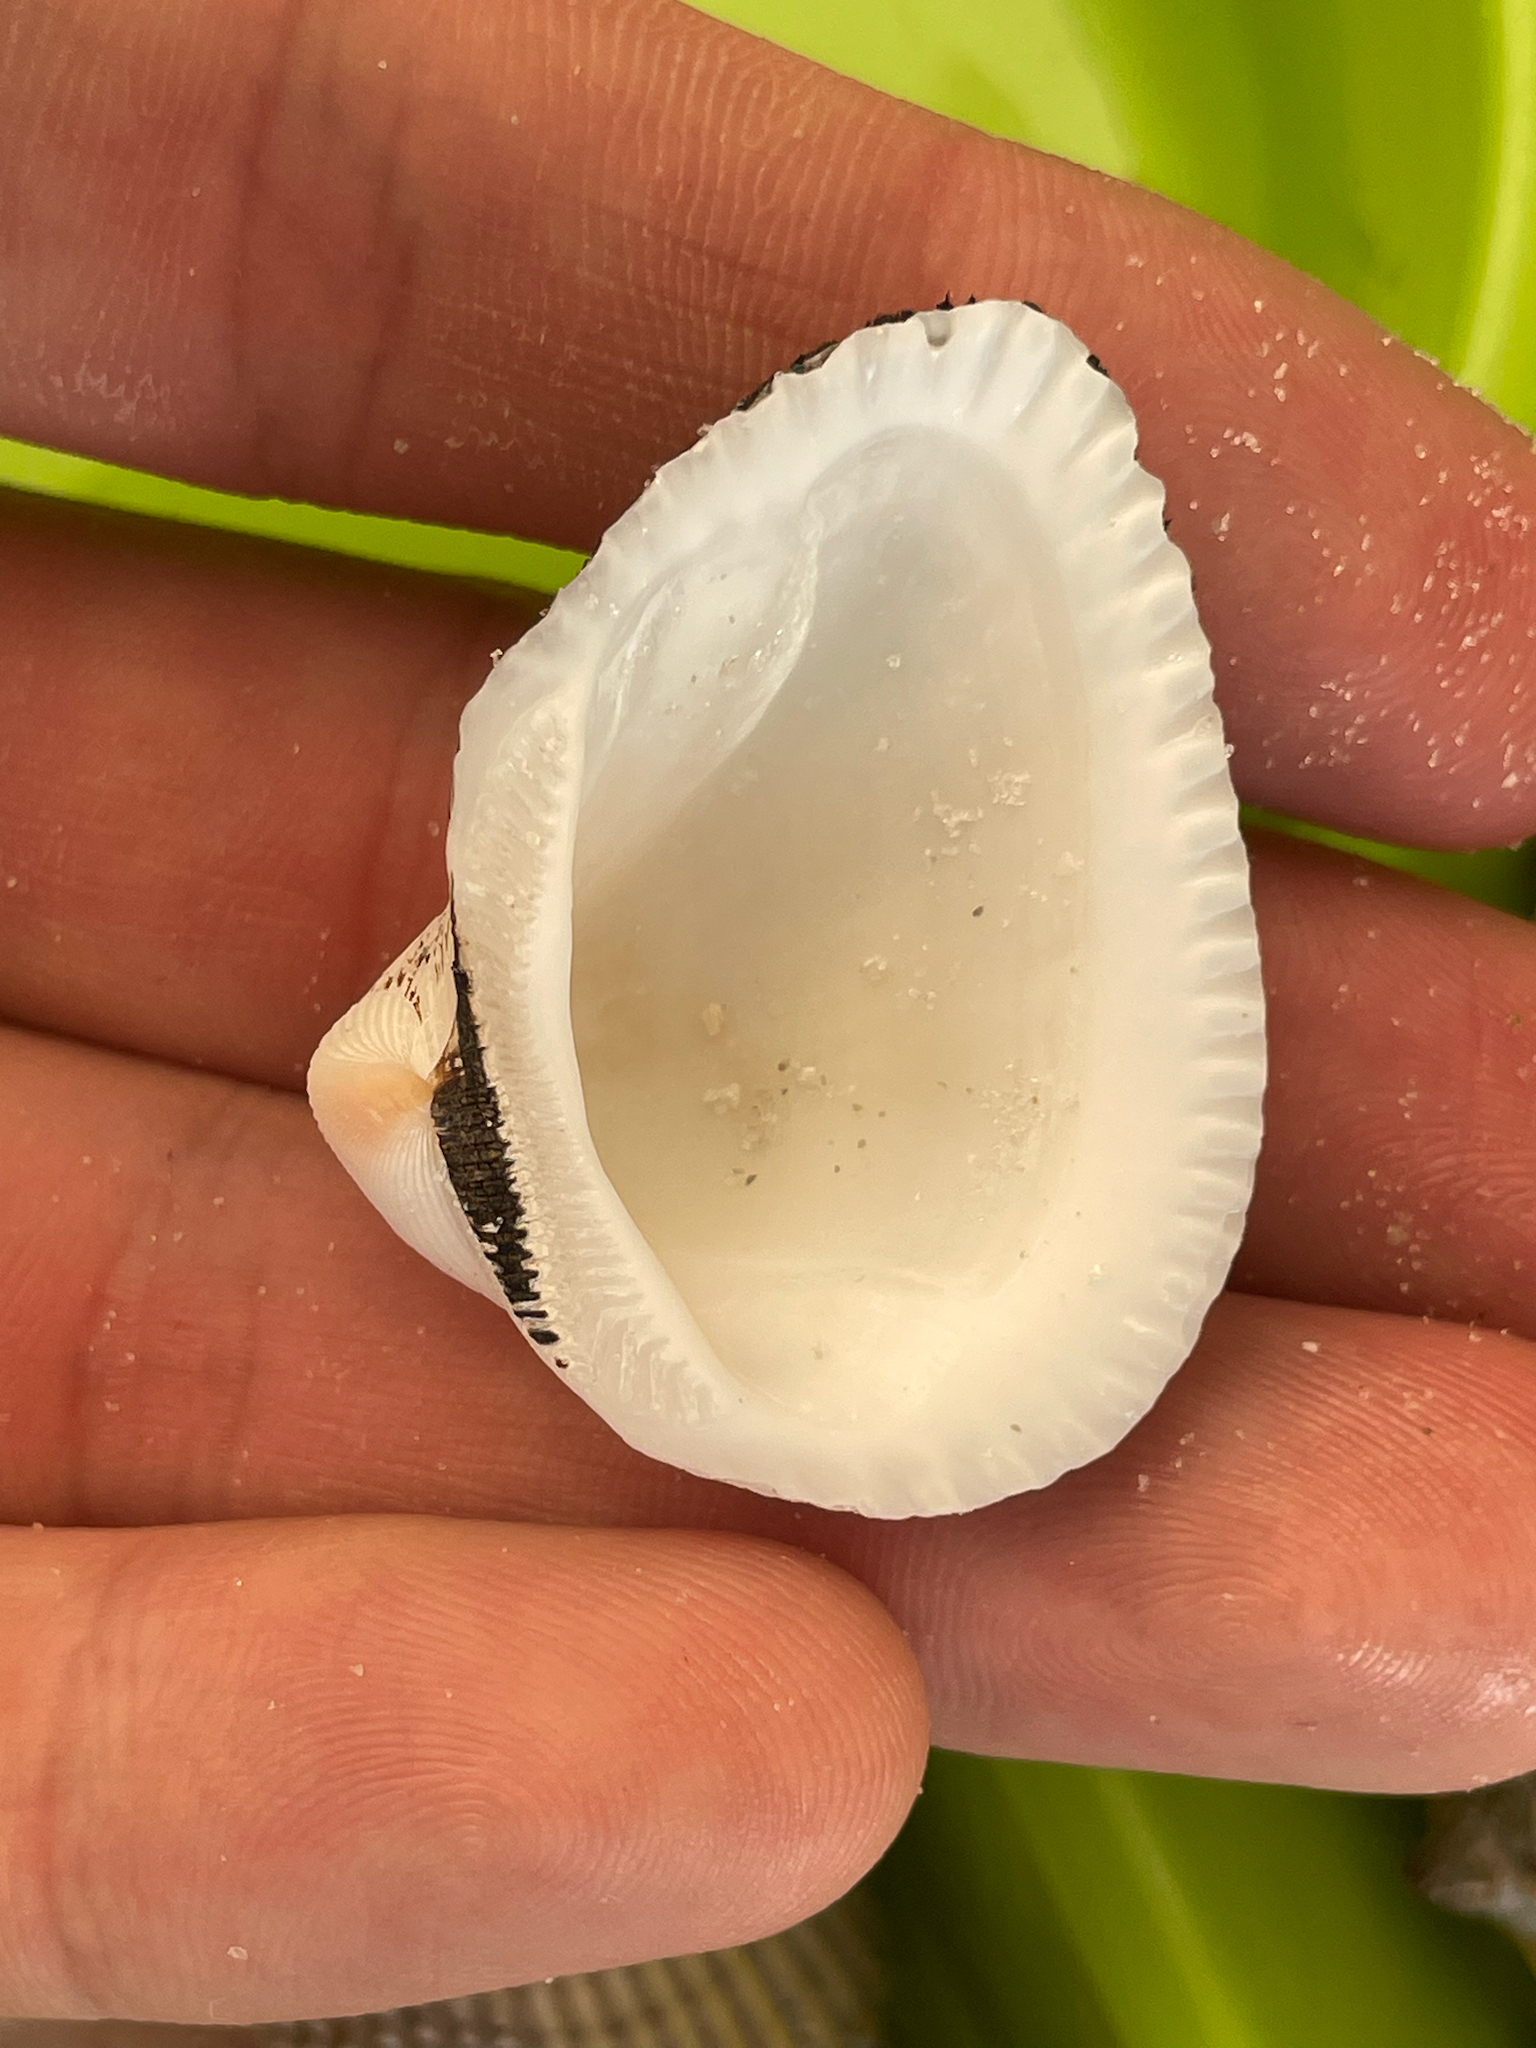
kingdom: Animalia
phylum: Mollusca
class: Bivalvia
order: Arcida
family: Noetiidae
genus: Noetia
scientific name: Noetia ponderosa
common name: Ponderous ark
